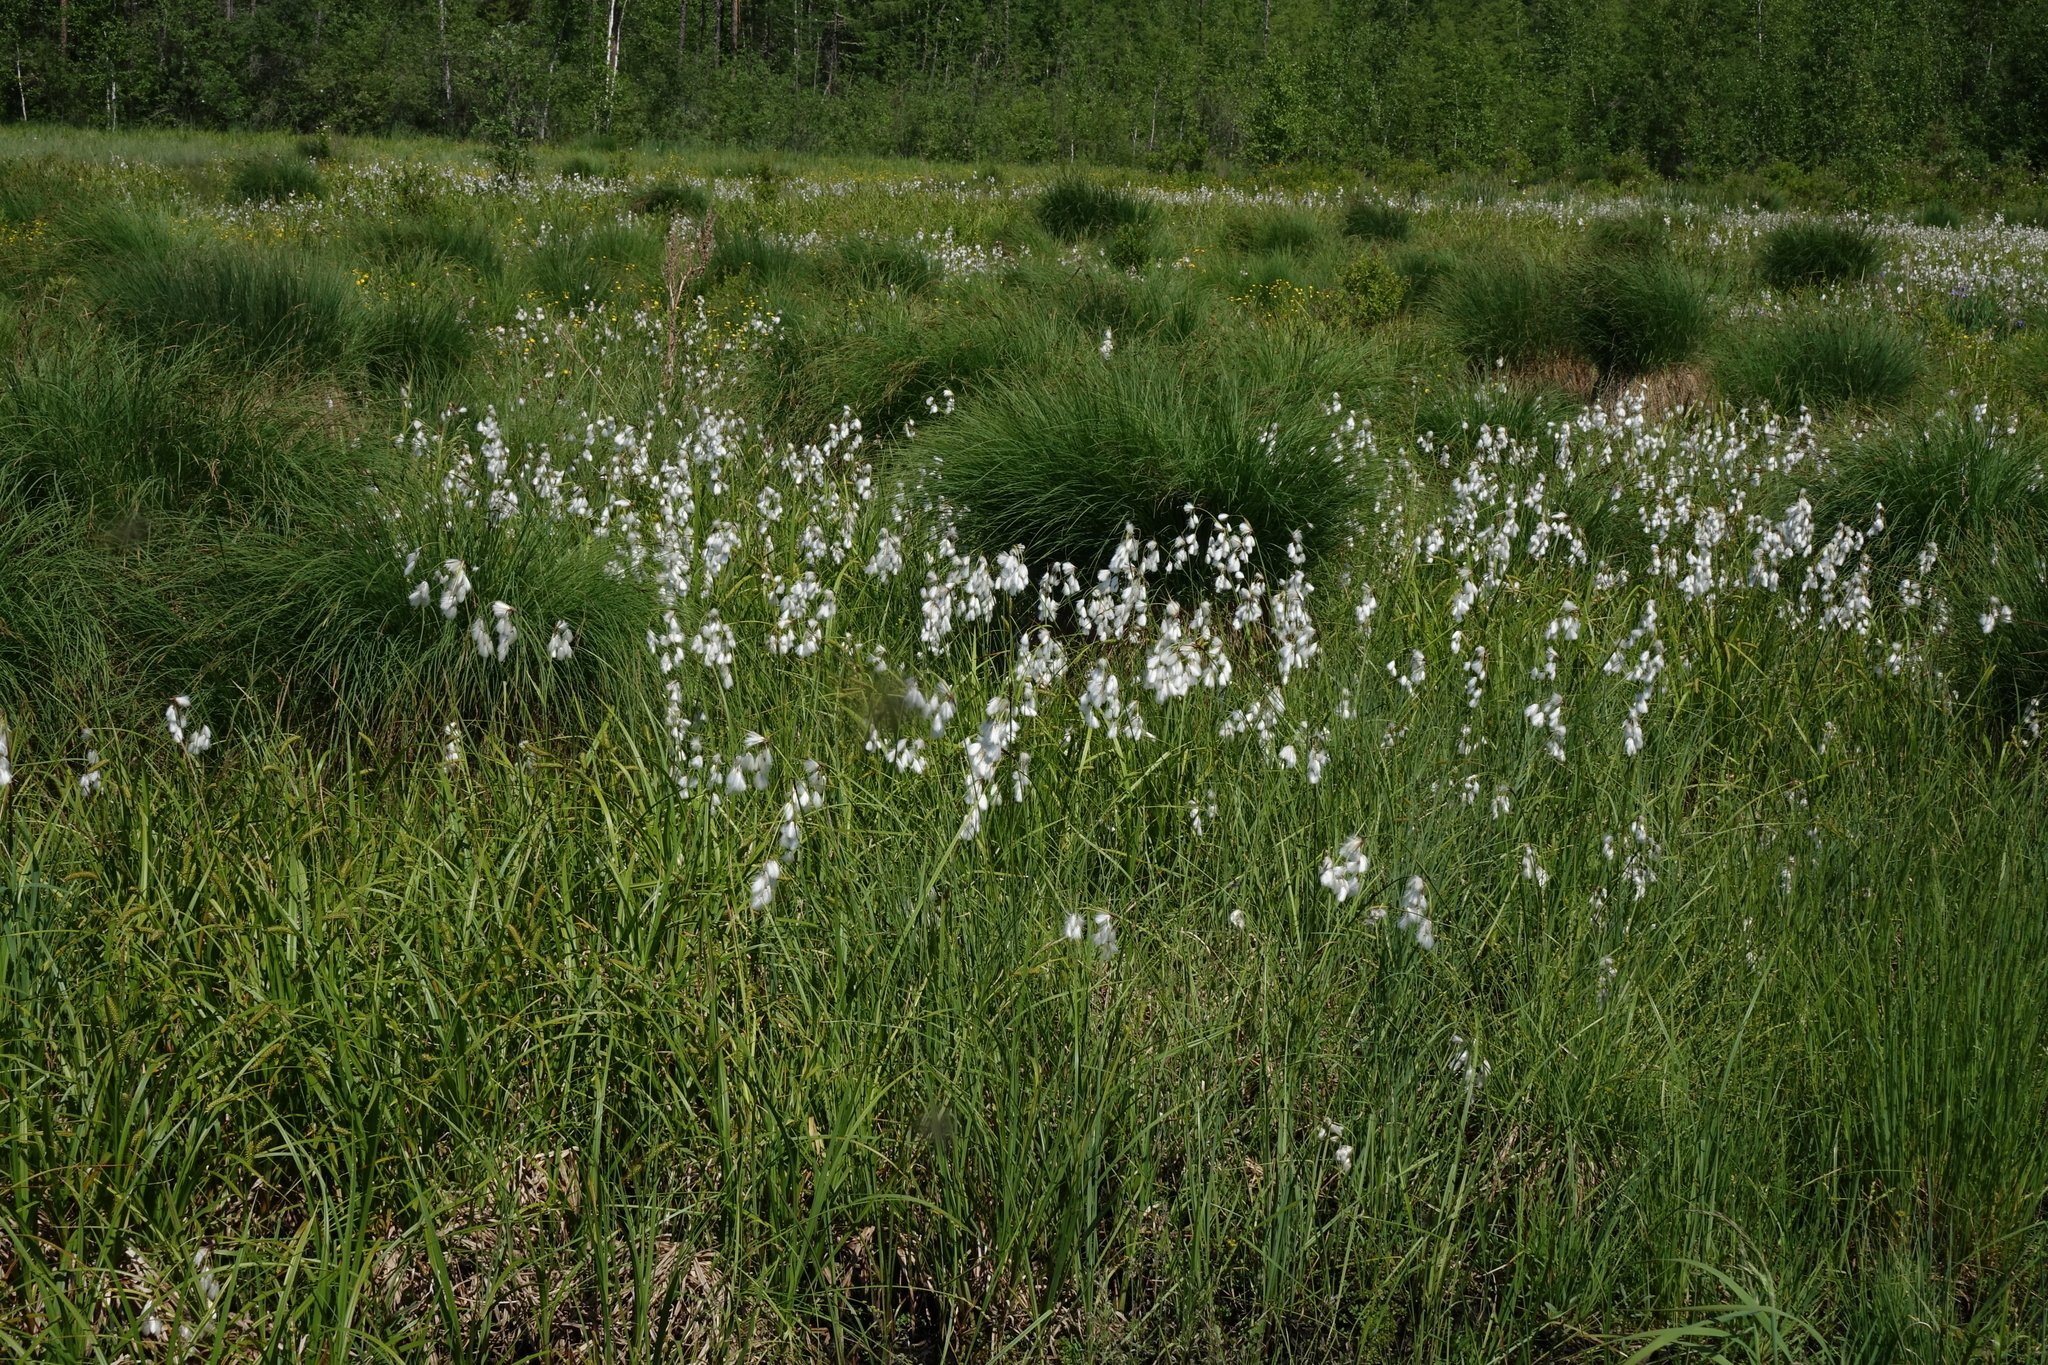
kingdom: Plantae
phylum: Tracheophyta
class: Liliopsida
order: Poales
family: Cyperaceae
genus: Eriophorum
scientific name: Eriophorum angustifolium
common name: Common cottongrass
